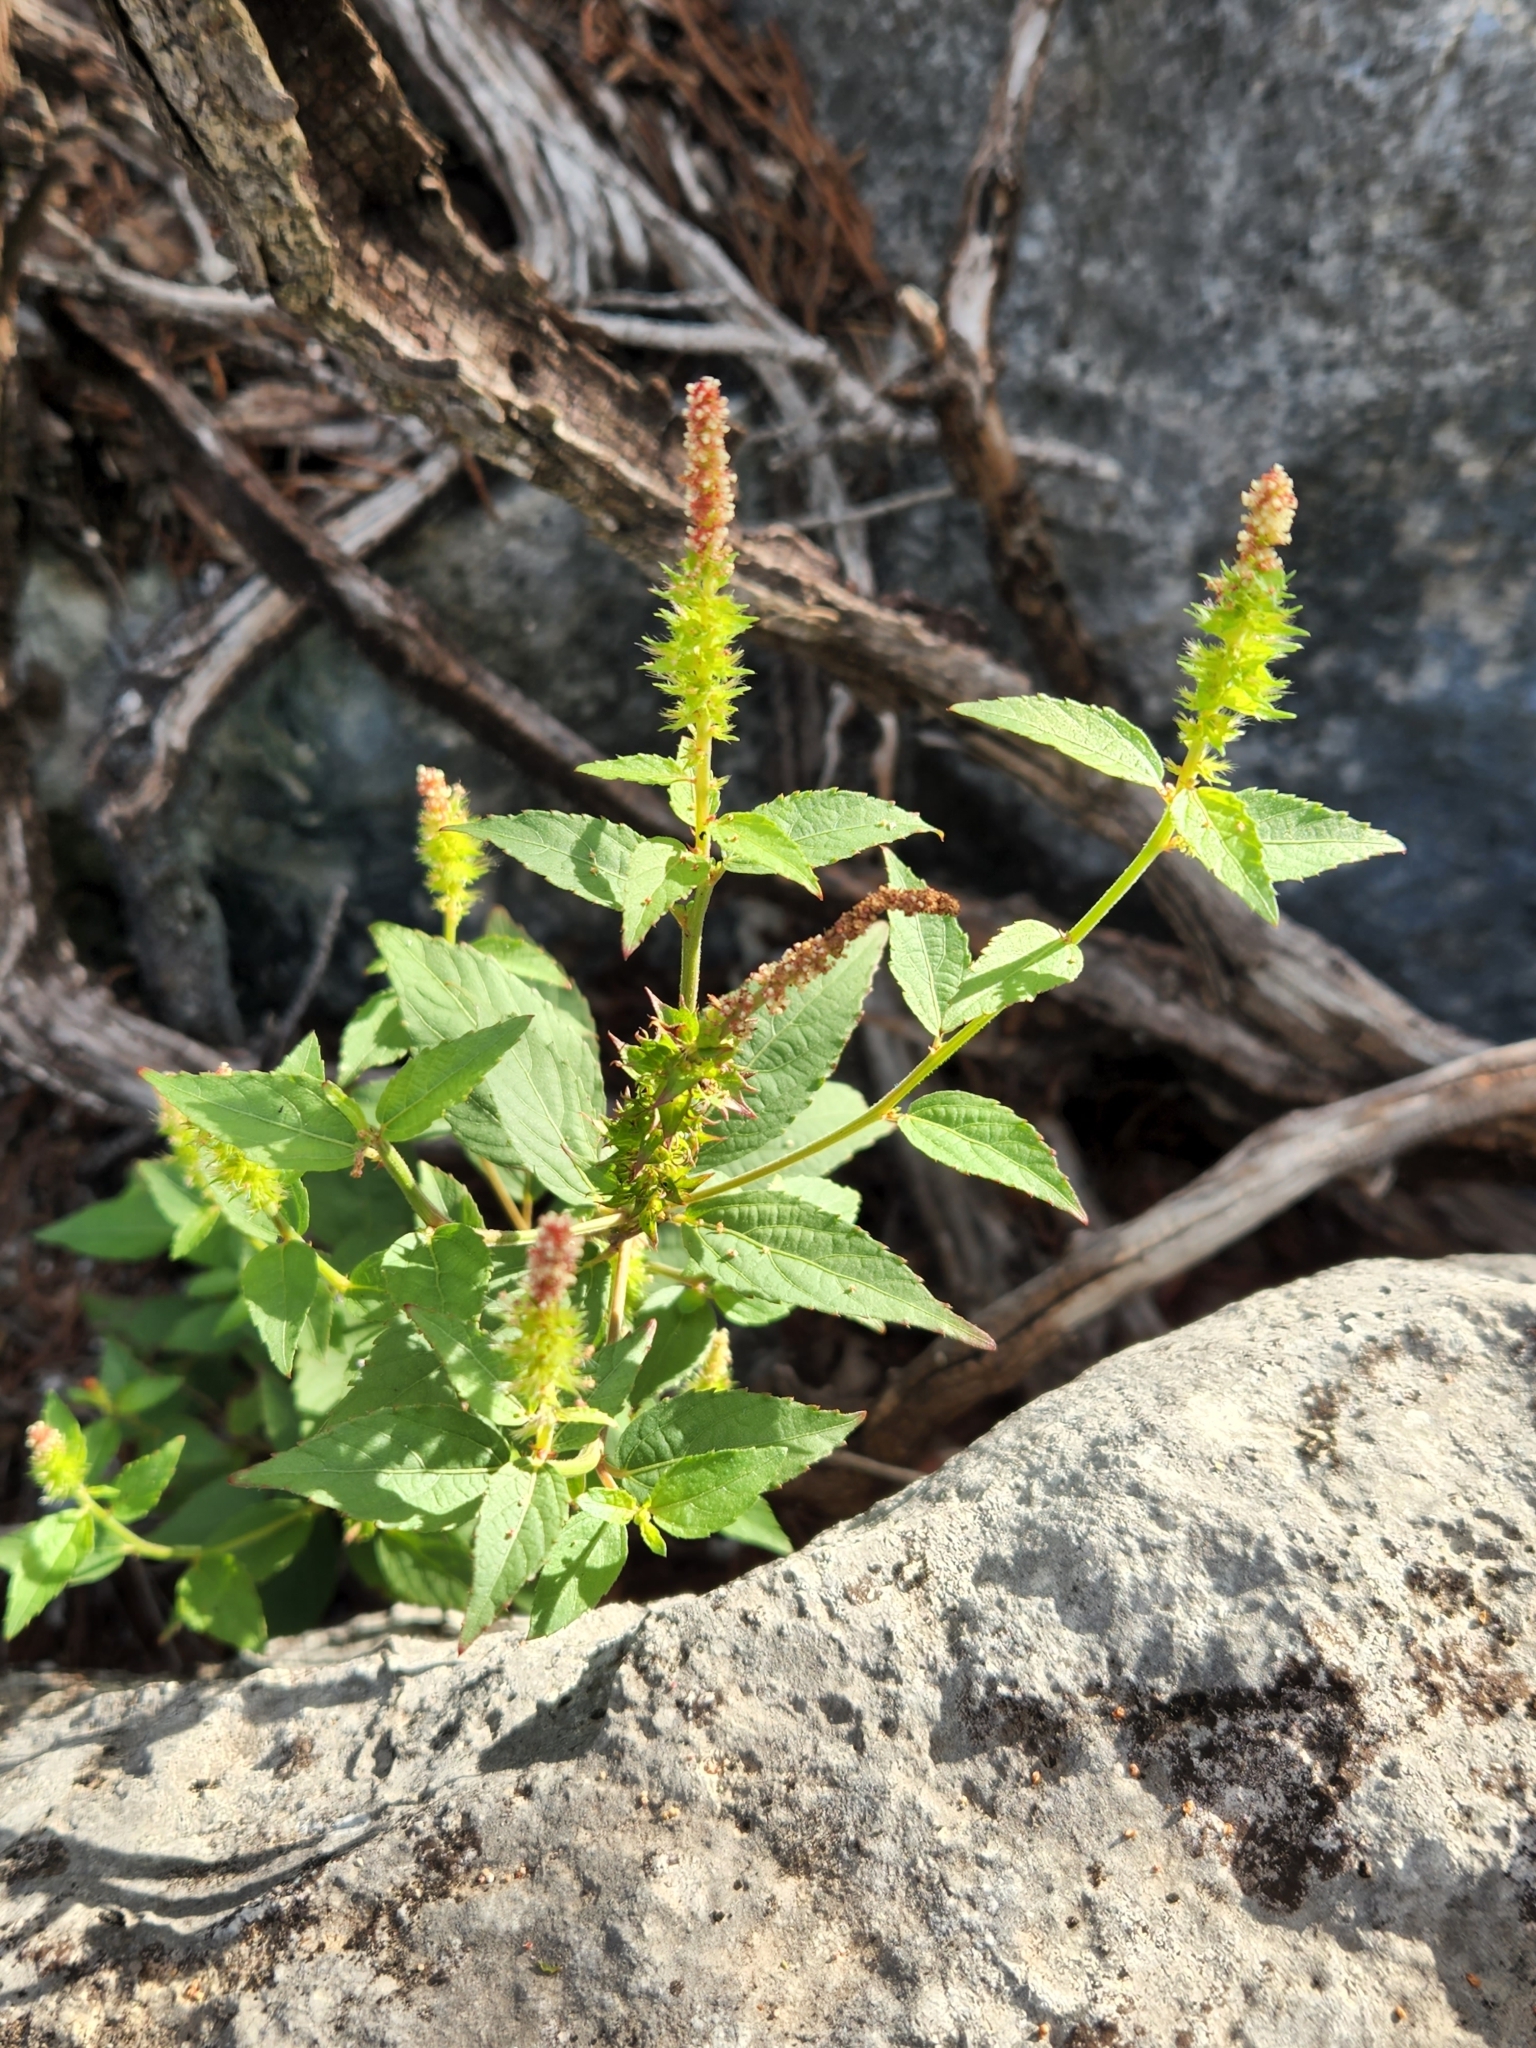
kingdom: Plantae
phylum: Tracheophyta
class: Magnoliopsida
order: Malpighiales
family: Euphorbiaceae
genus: Acalypha
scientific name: Acalypha phleoides
